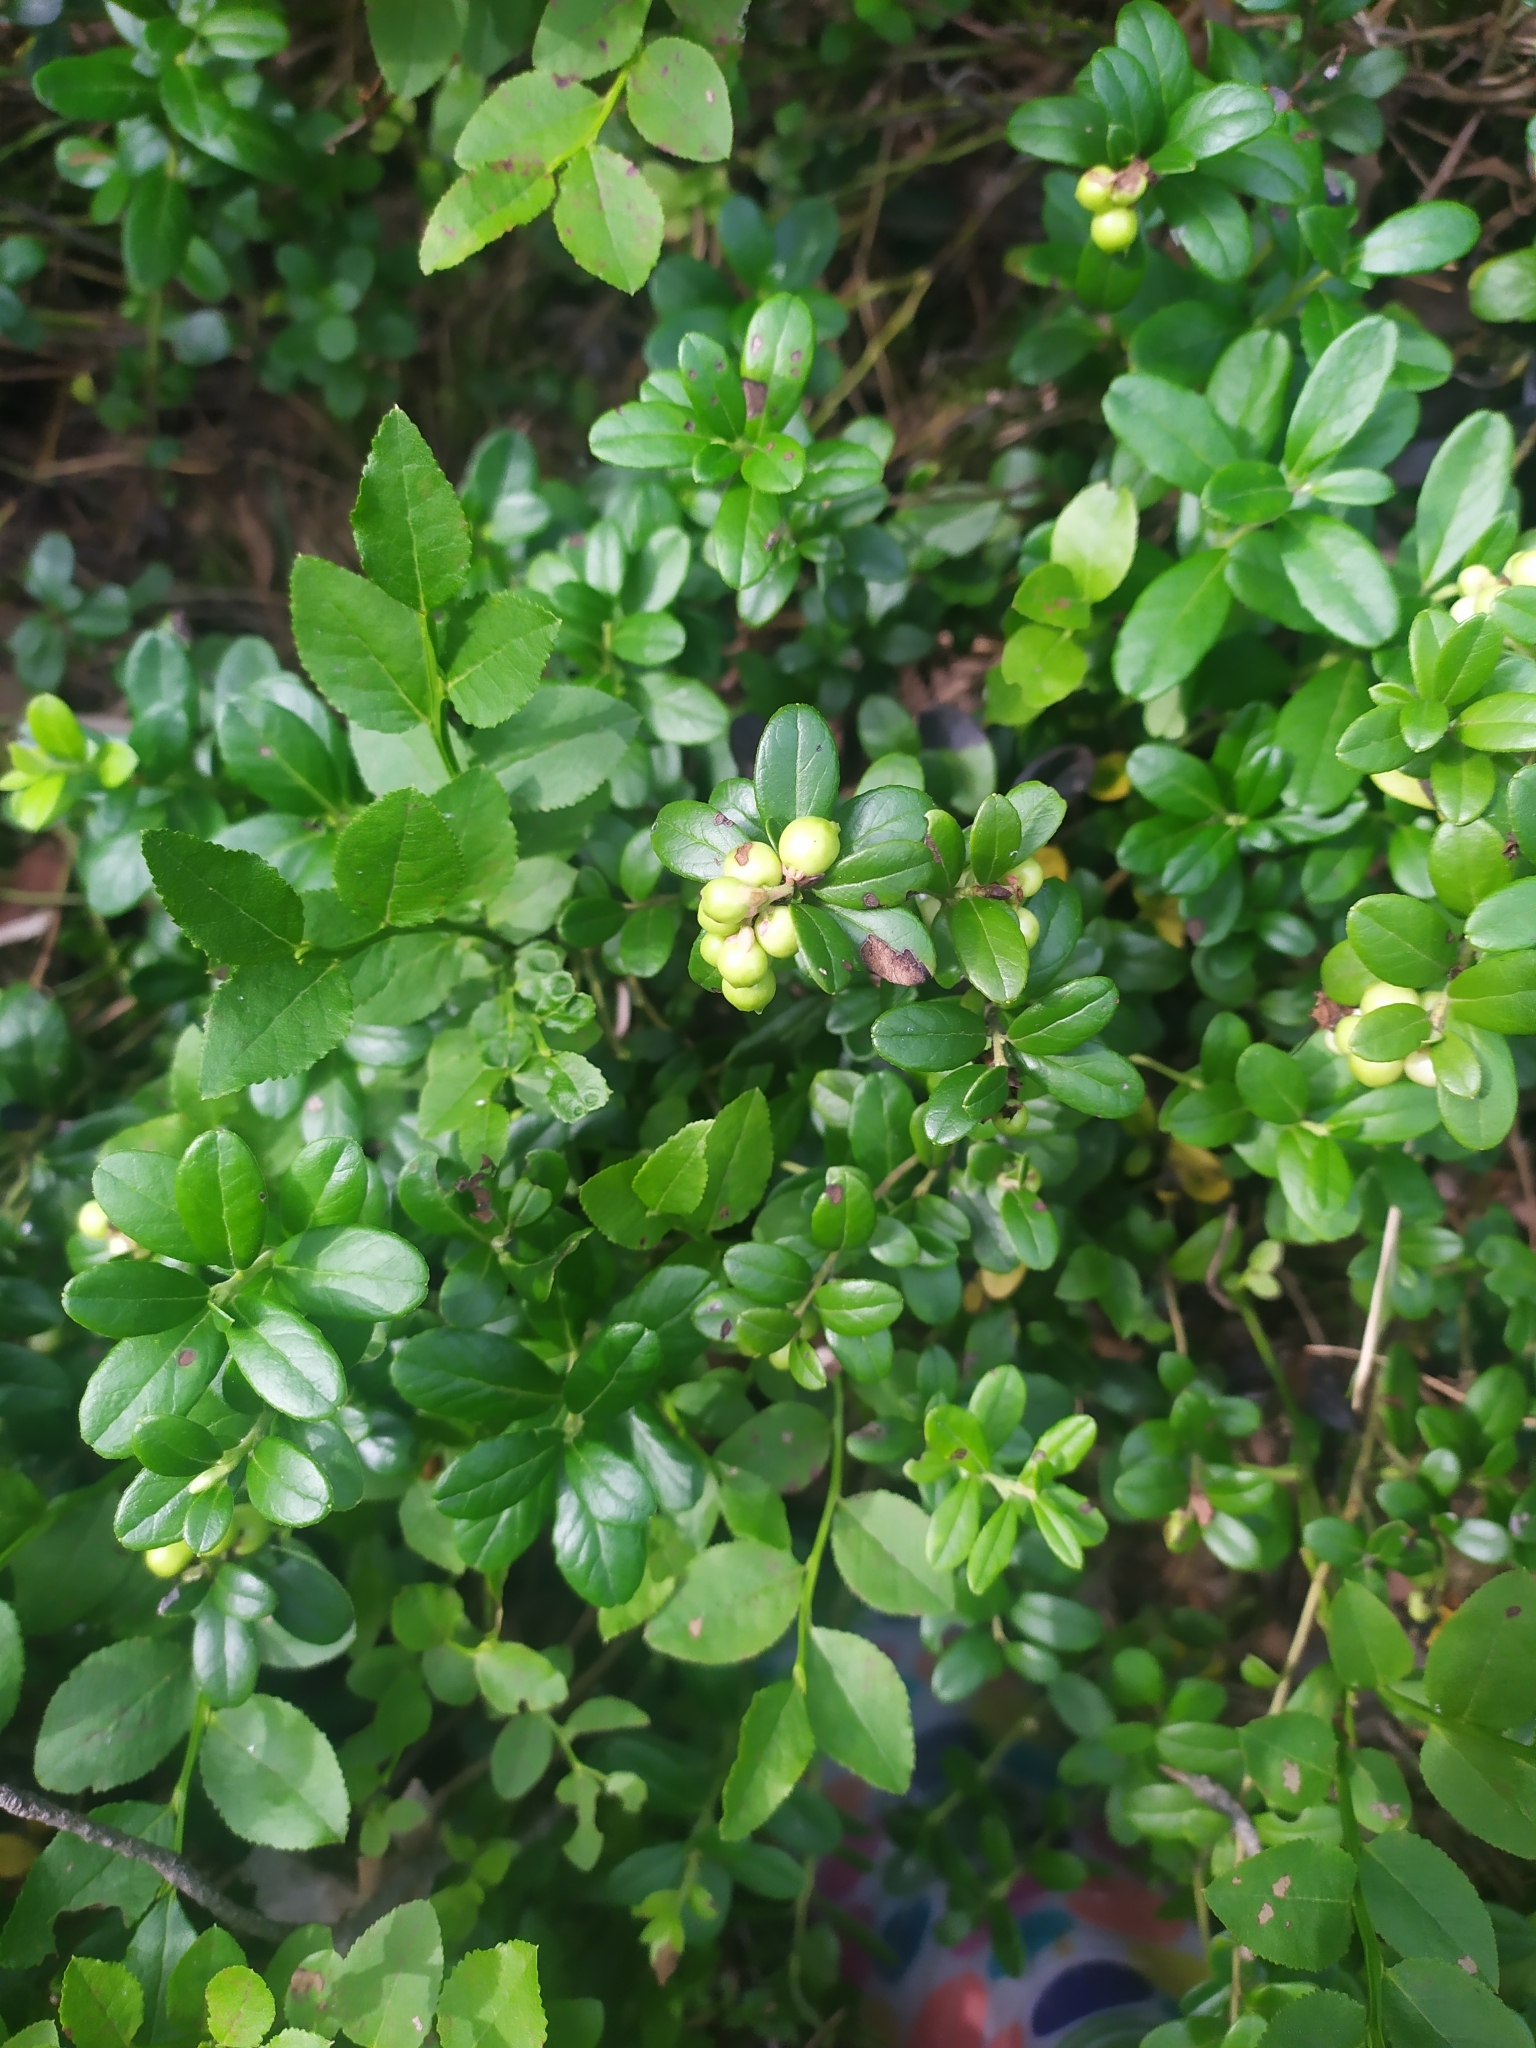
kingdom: Plantae
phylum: Tracheophyta
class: Magnoliopsida
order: Ericales
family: Ericaceae
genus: Vaccinium
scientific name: Vaccinium vitis-idaea
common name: Cowberry
